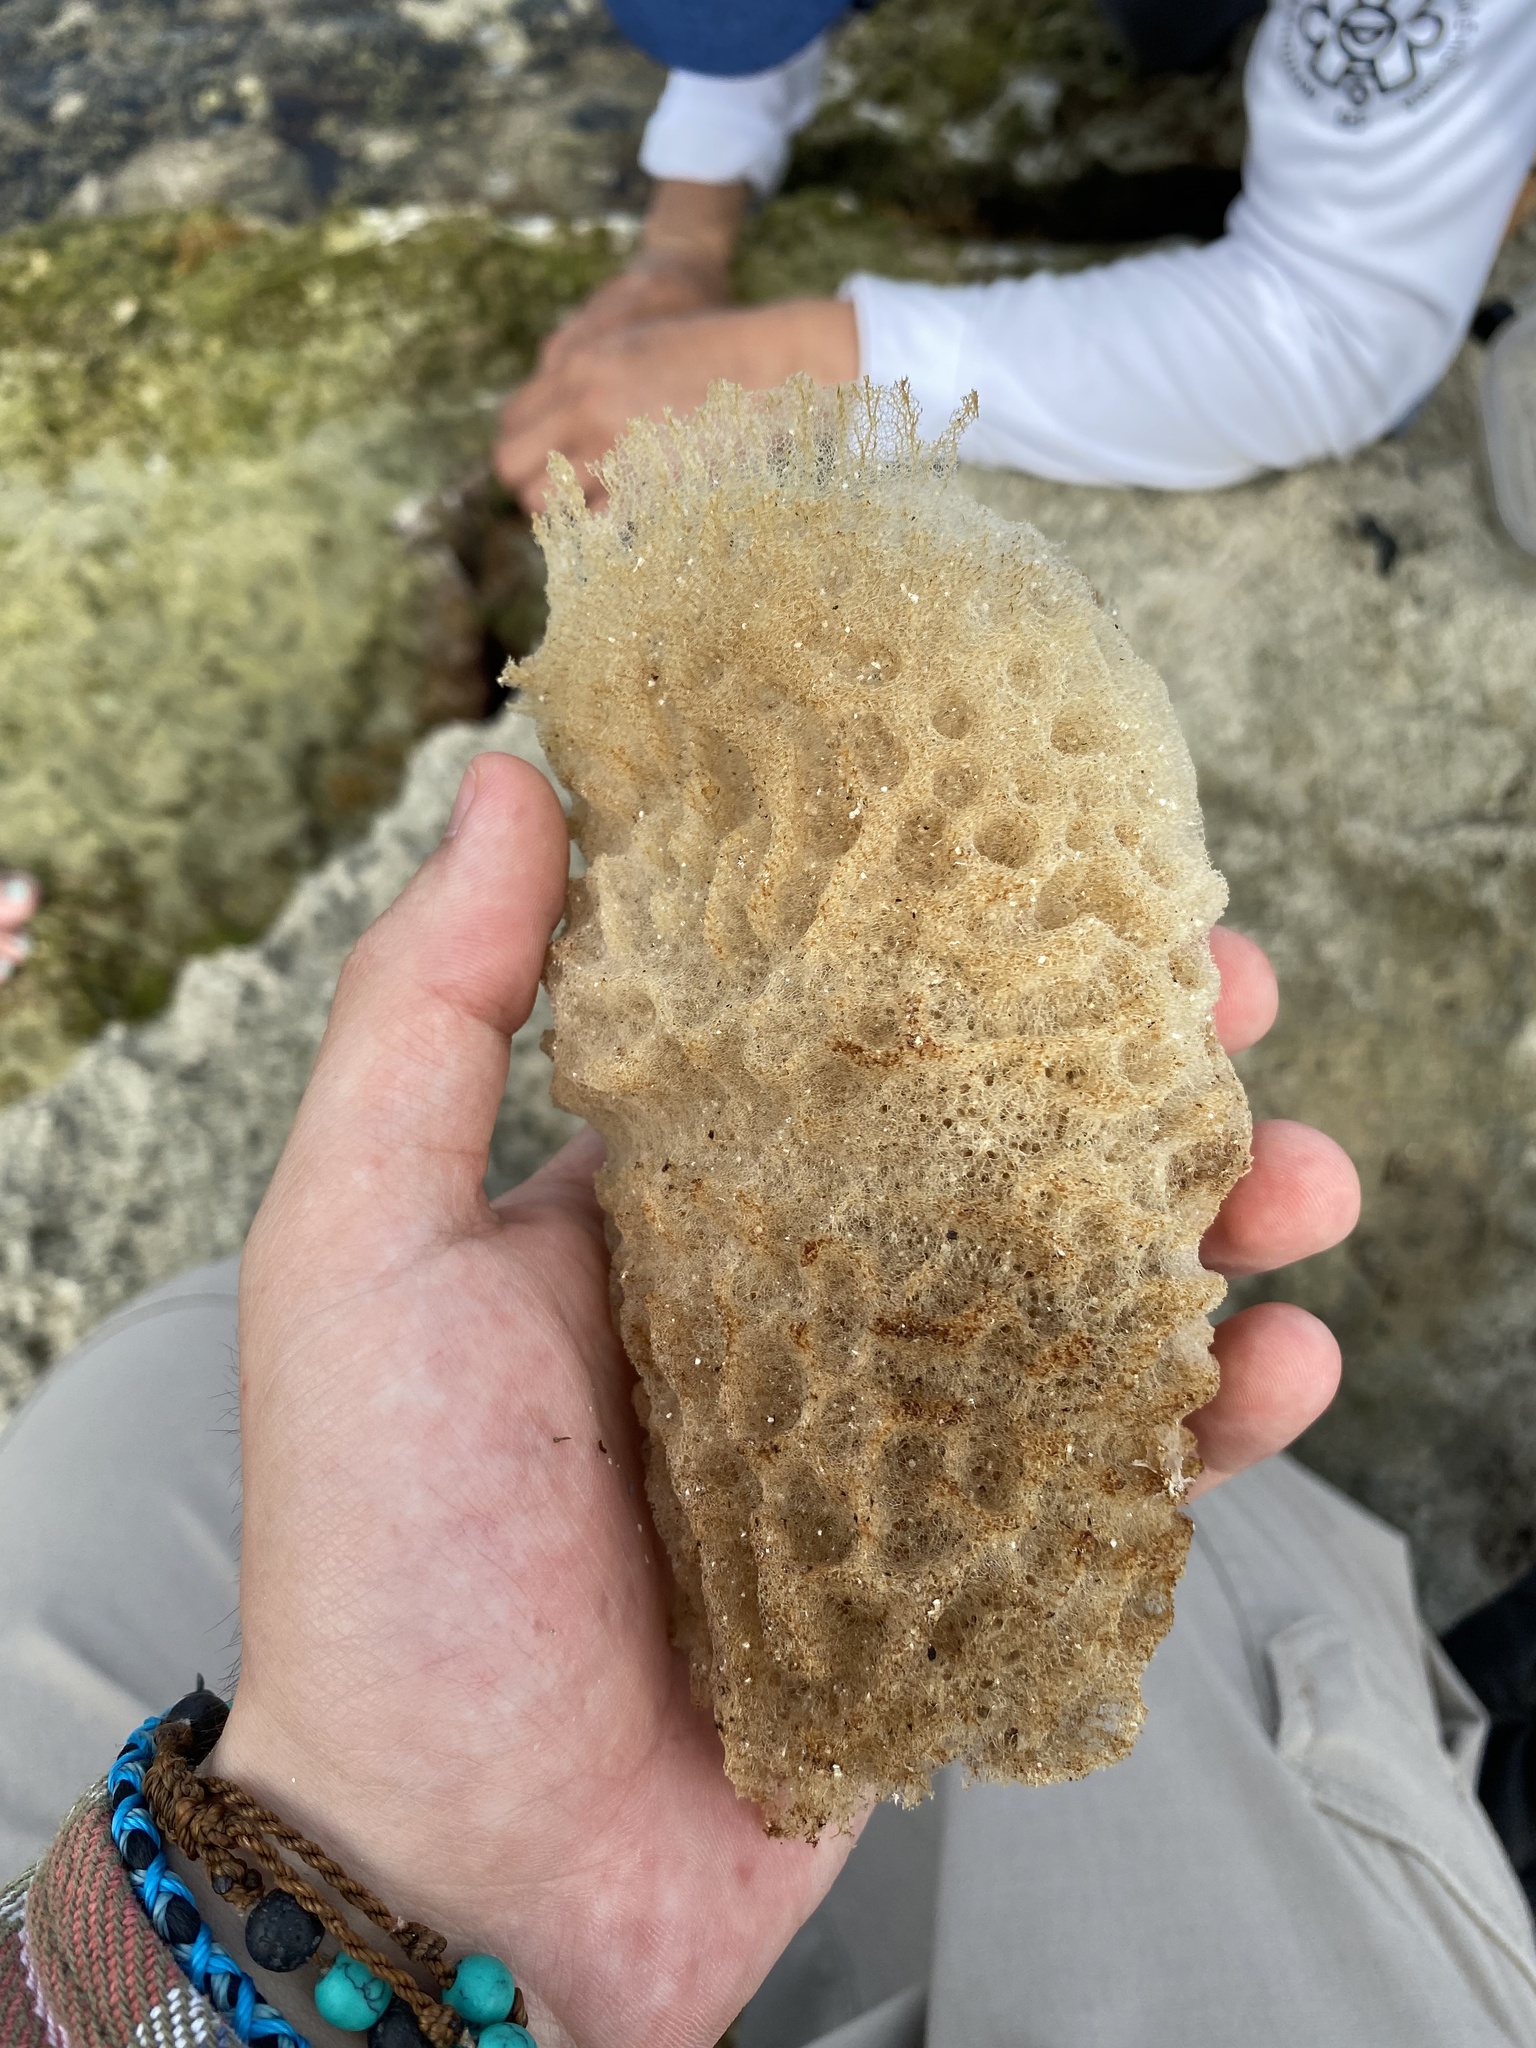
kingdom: Animalia
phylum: Porifera
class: Demospongiae
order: Haplosclerida
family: Callyspongiidae
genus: Callyspongia
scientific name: Callyspongia plicifera
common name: Azure vase sponge
